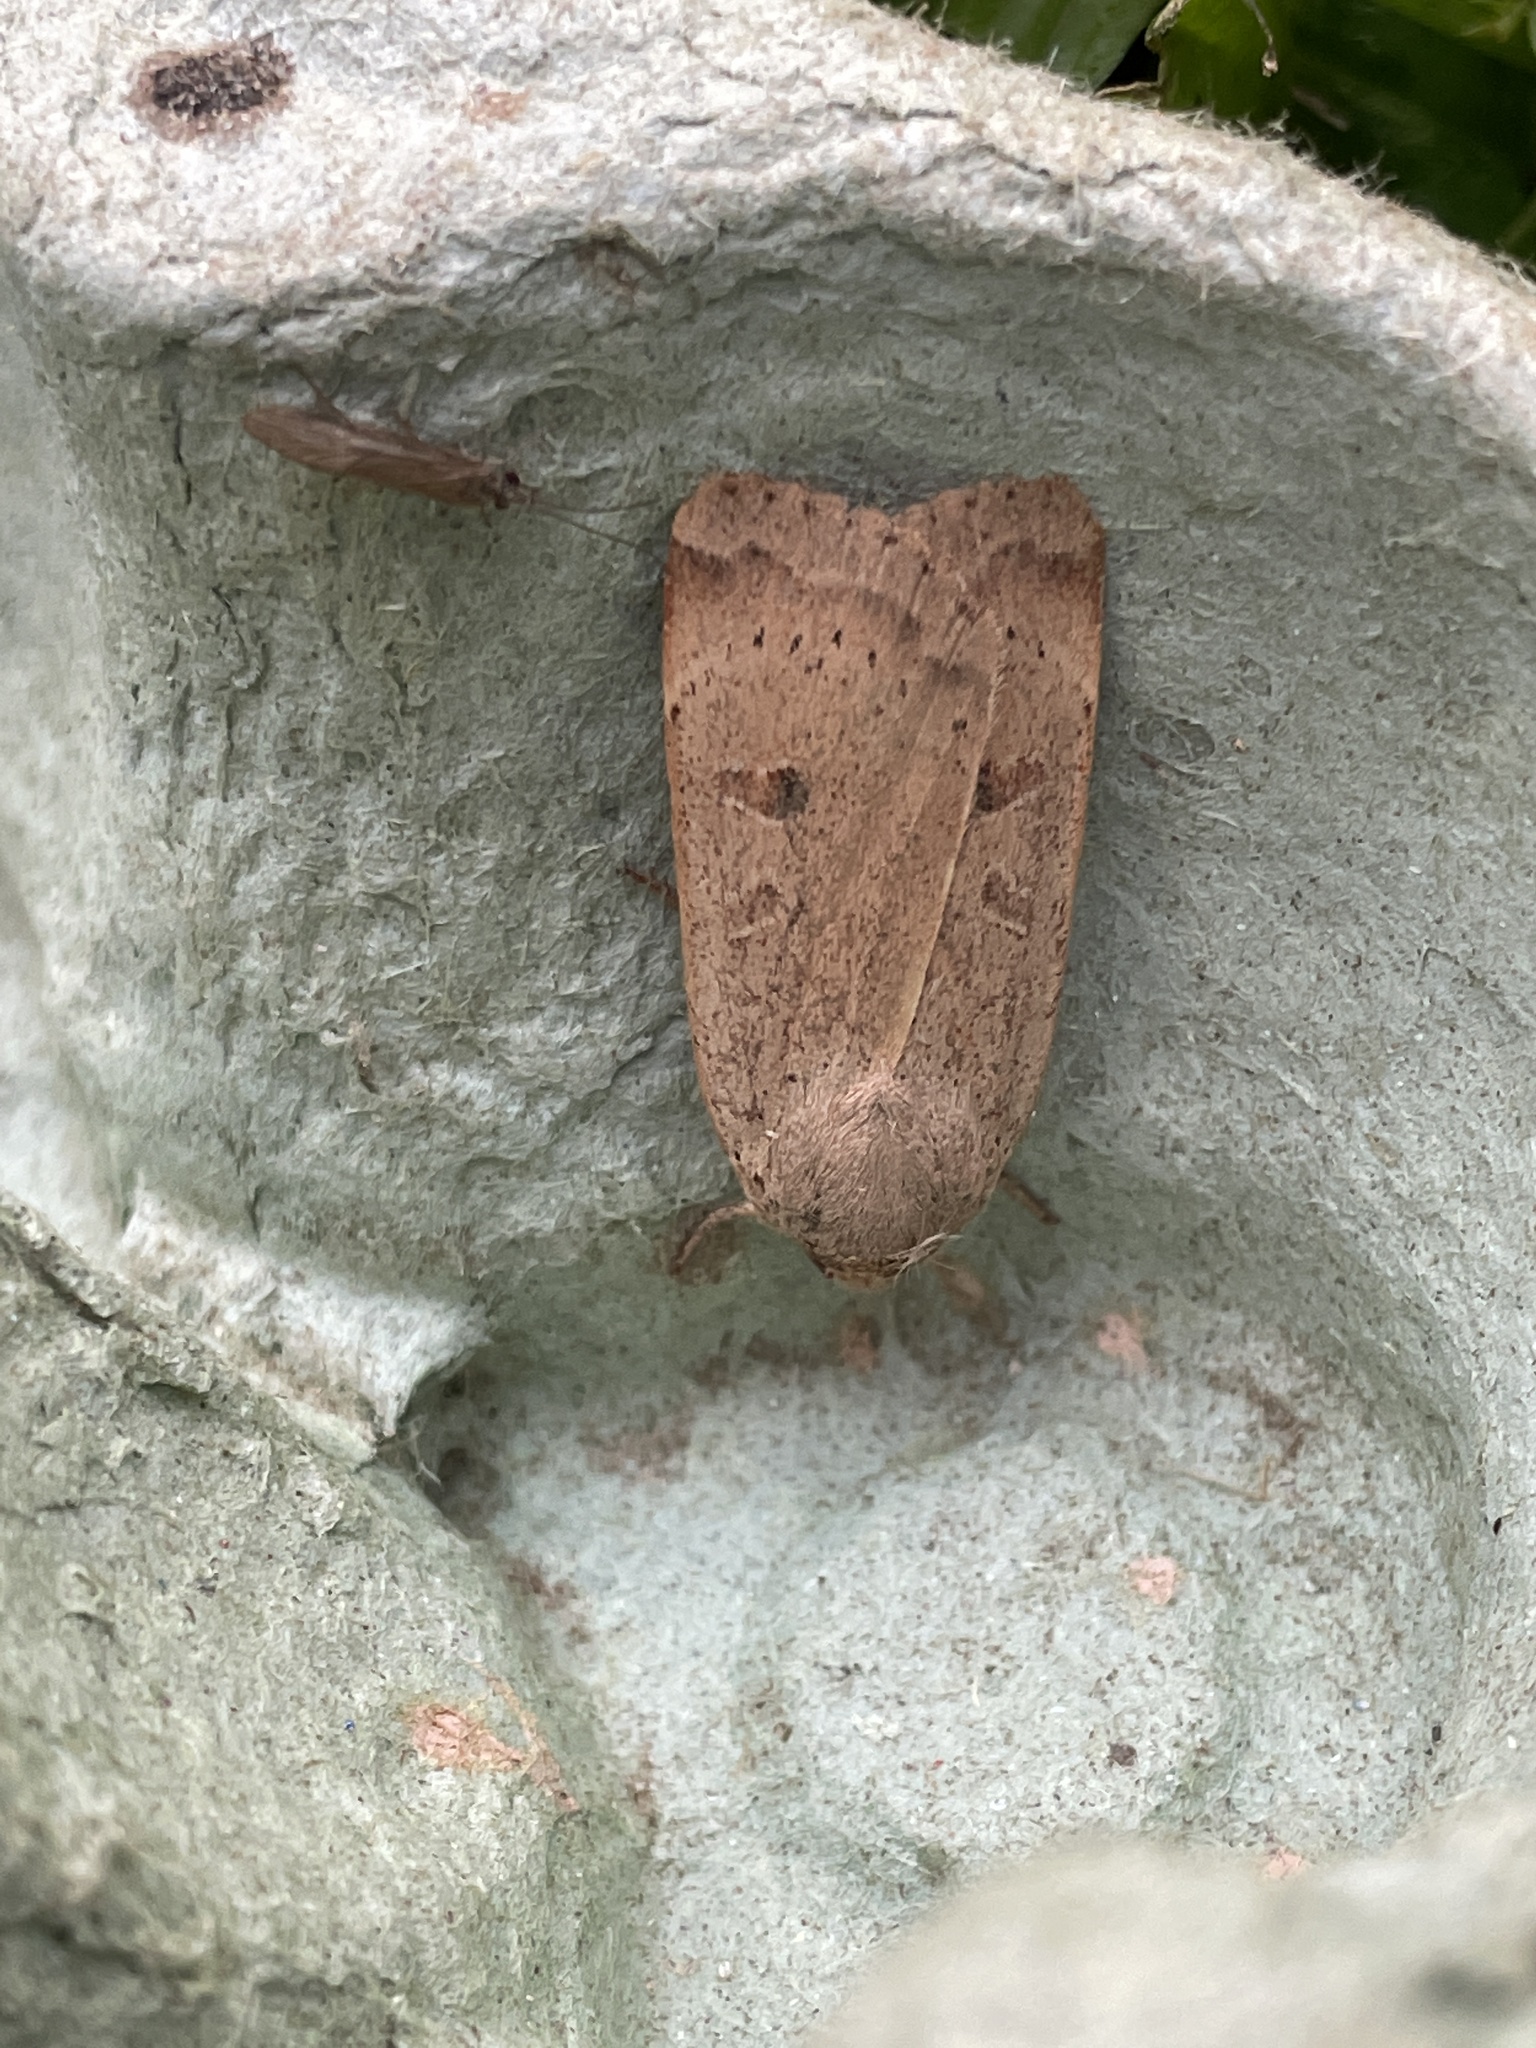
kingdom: Animalia
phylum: Arthropoda
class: Insecta
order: Lepidoptera
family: Noctuidae
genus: Noctua
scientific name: Noctua comes
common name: Lesser yellow underwing
